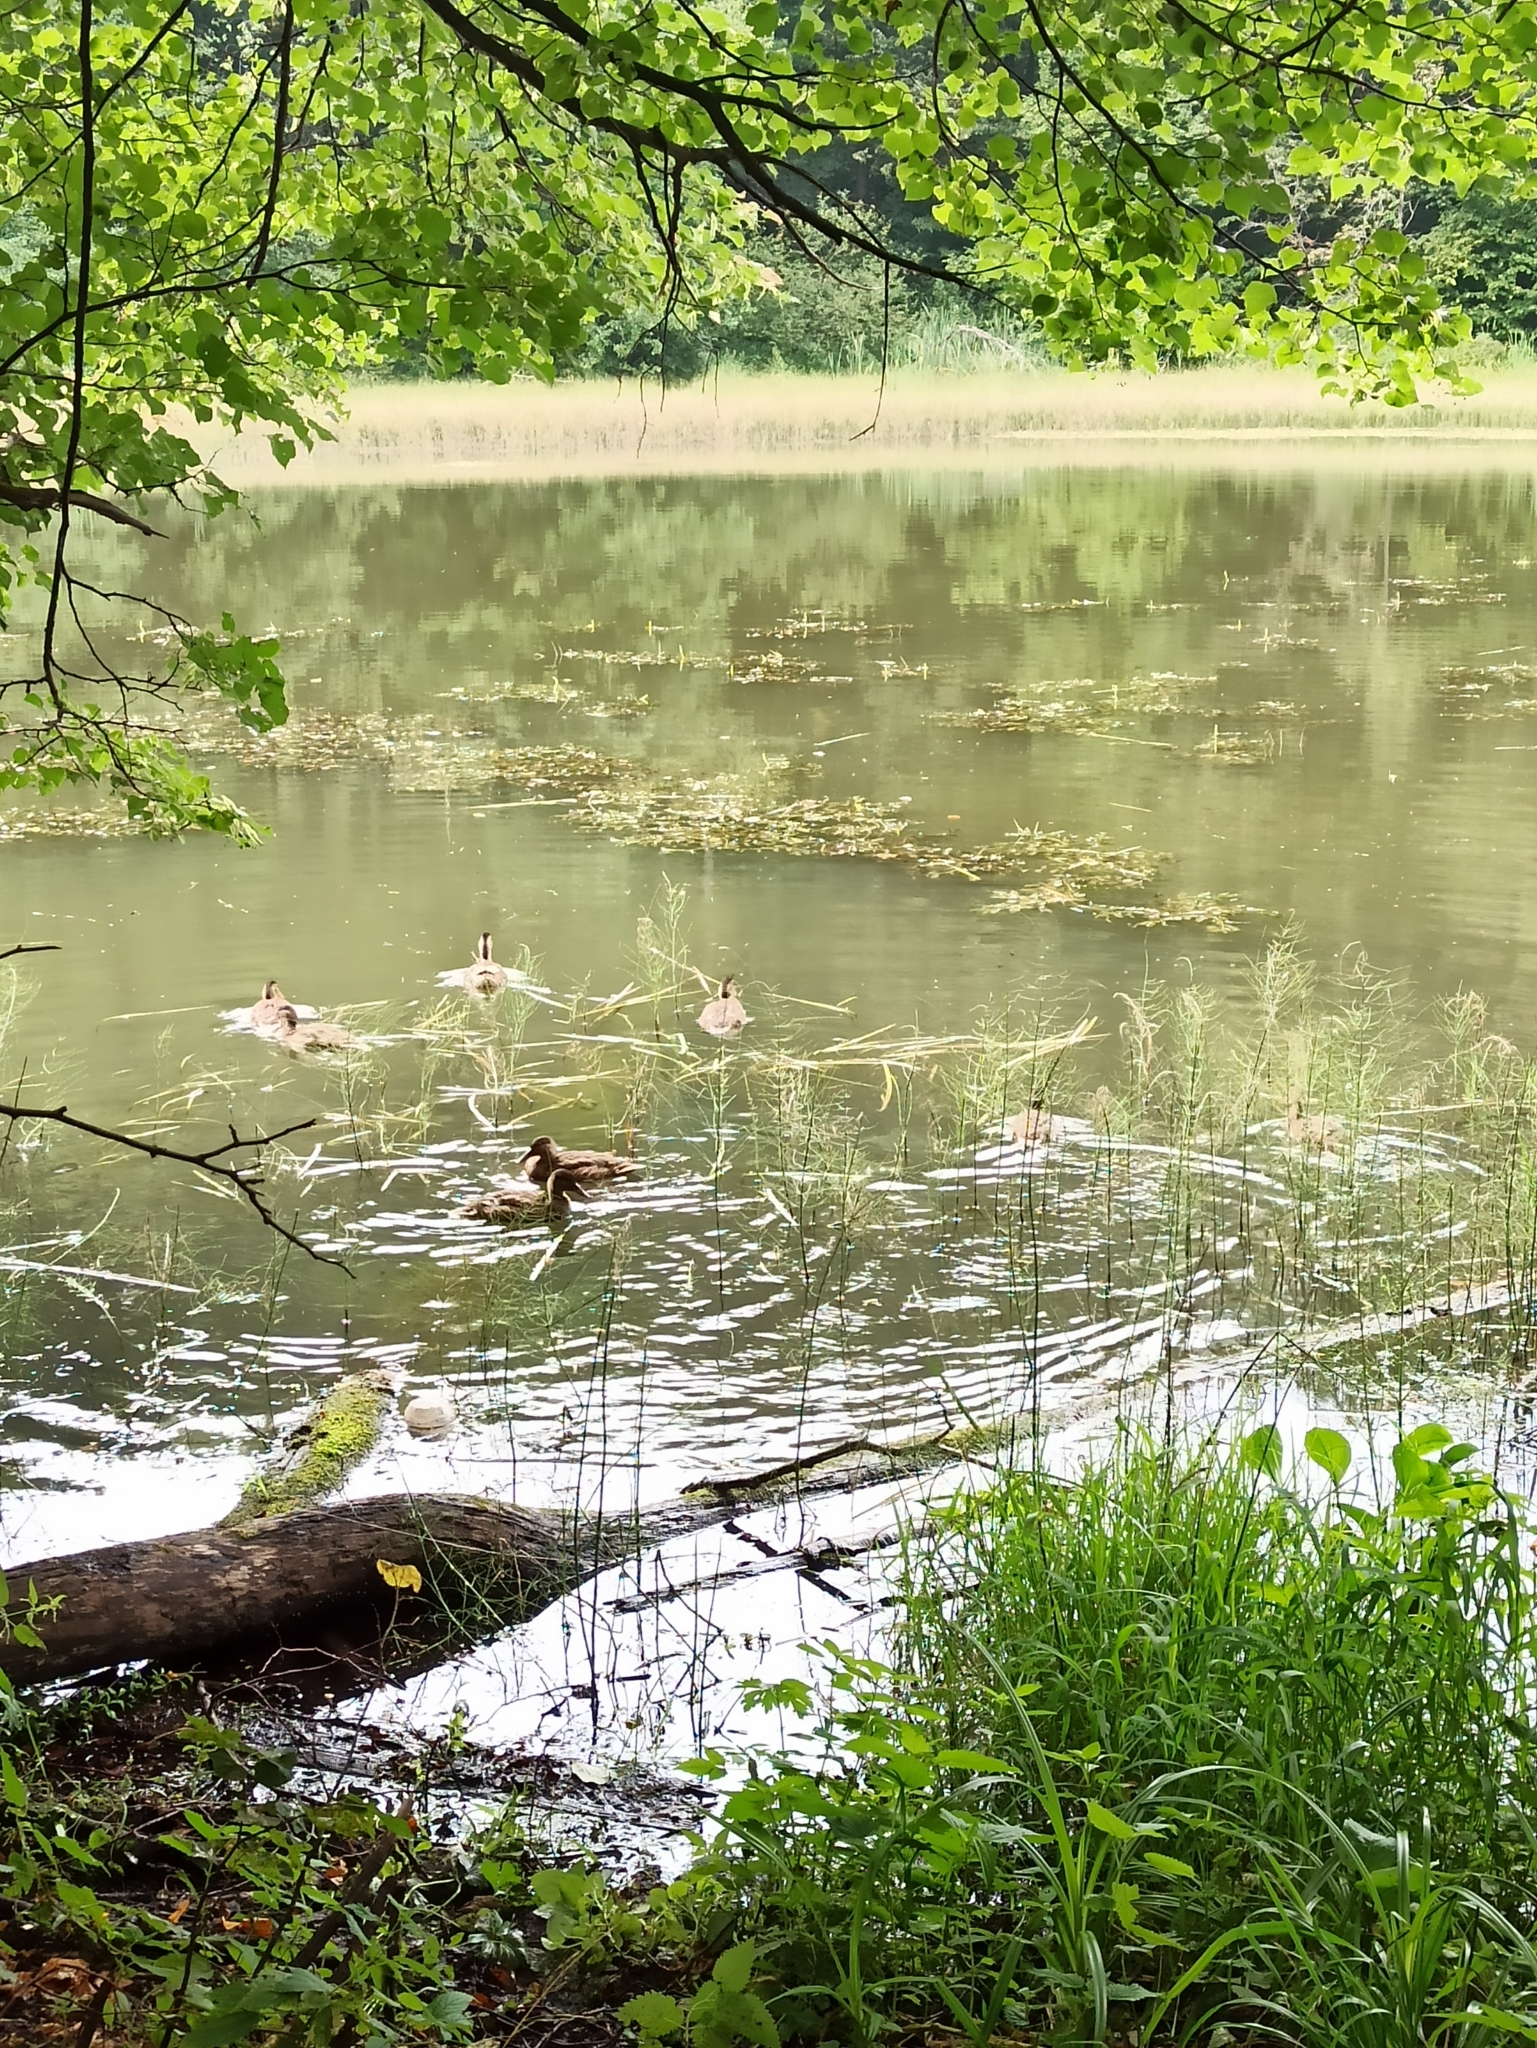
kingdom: Animalia
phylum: Chordata
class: Aves
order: Anseriformes
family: Anatidae
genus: Anas
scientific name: Anas platyrhynchos
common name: Mallard
